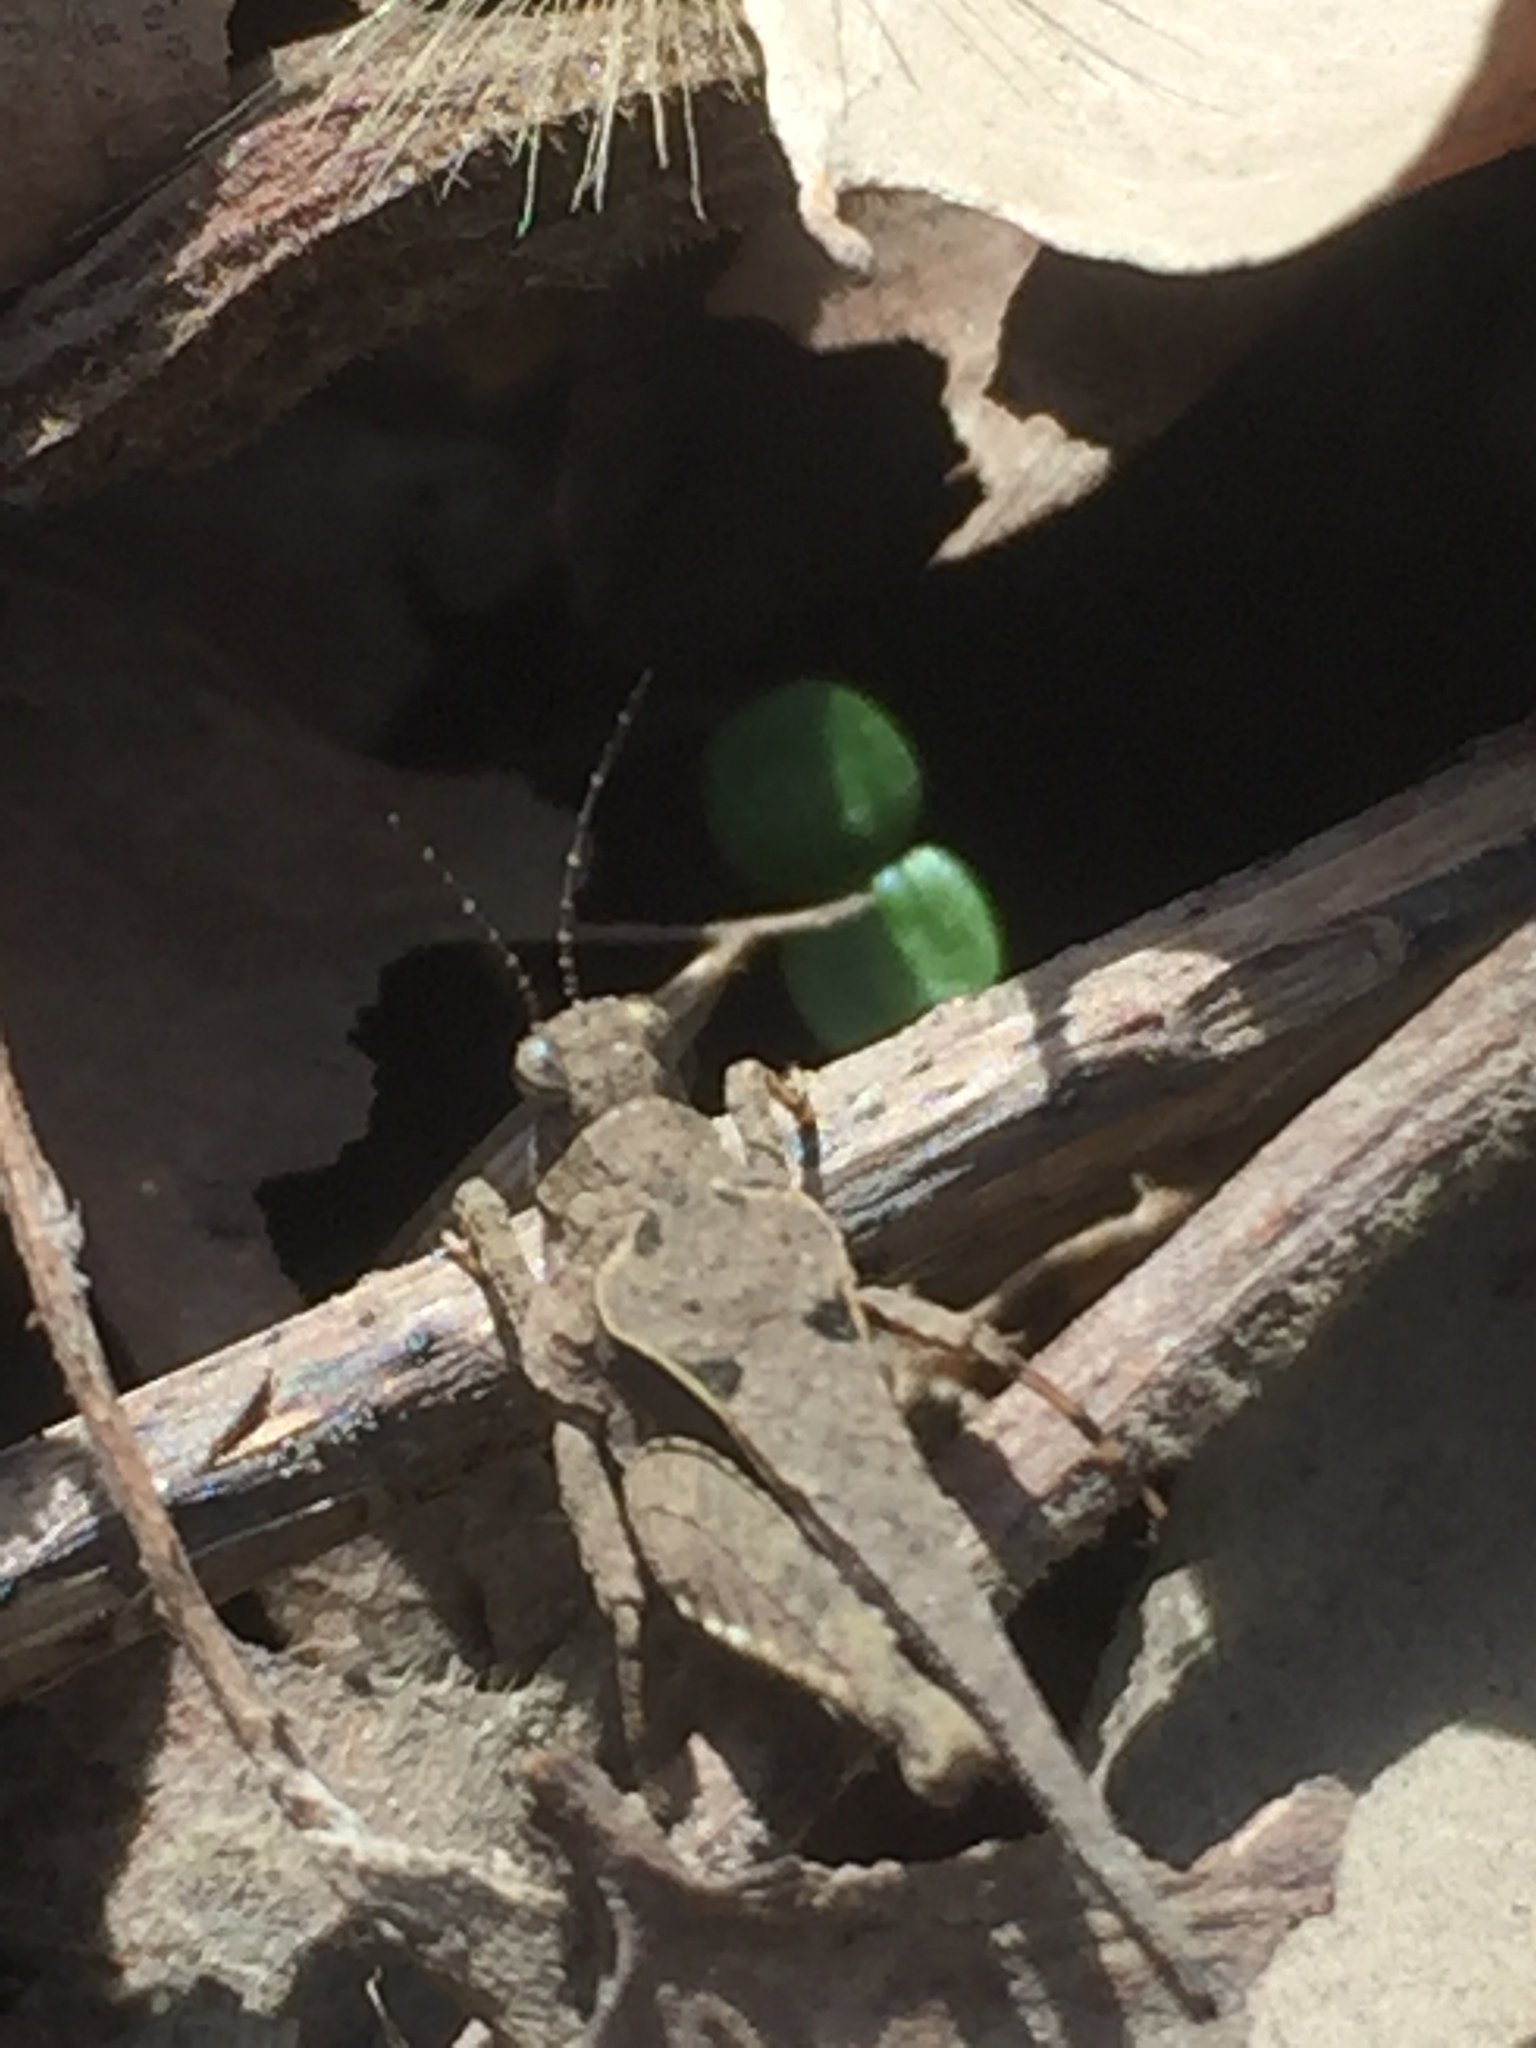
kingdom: Animalia
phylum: Arthropoda
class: Insecta
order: Orthoptera
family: Tetrigidae
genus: Tetrix
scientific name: Tetrix arenosa
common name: Ornate pygmy grasshopper
